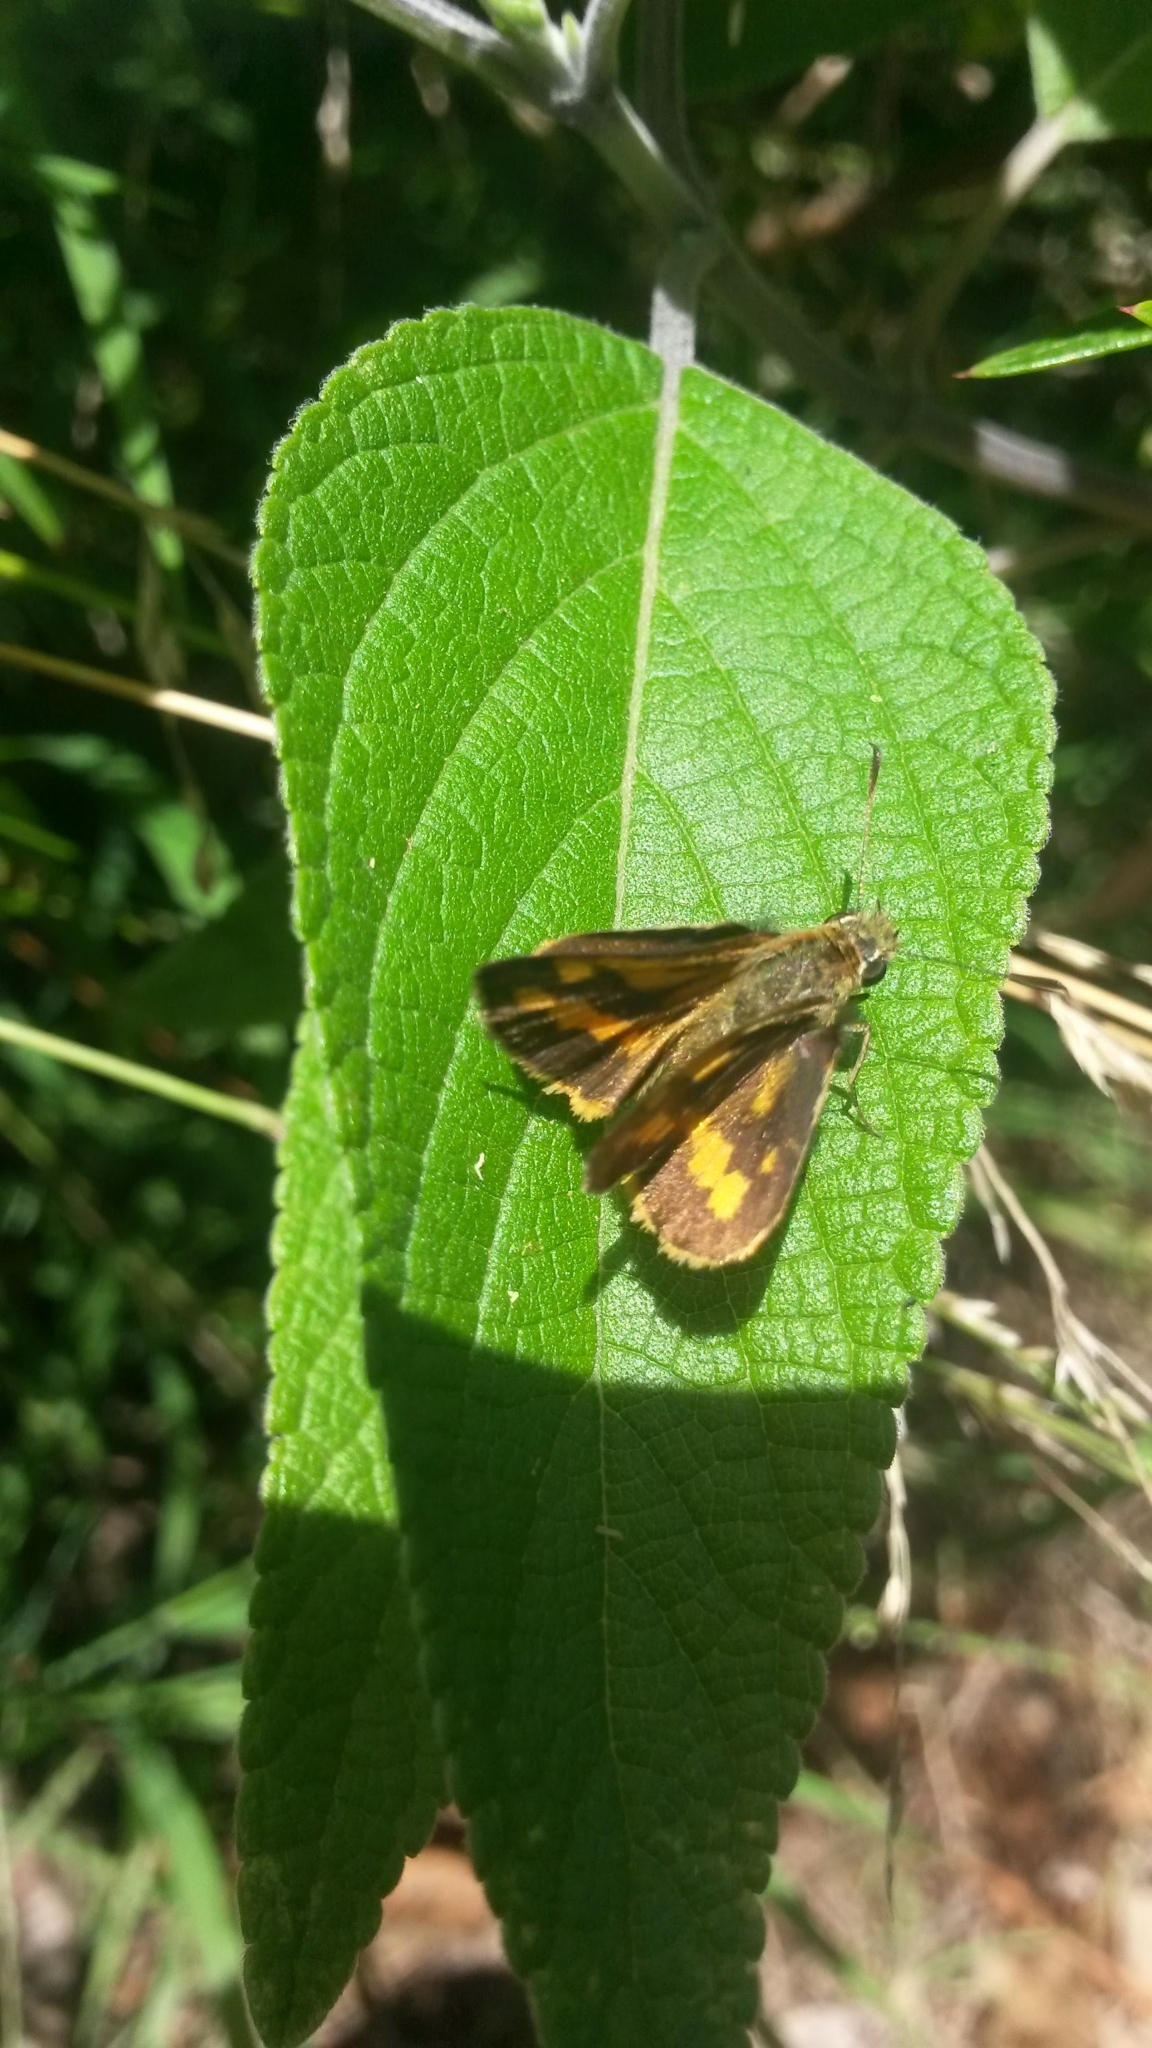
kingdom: Animalia
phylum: Arthropoda
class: Insecta
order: Lepidoptera
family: Hesperiidae
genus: Ocybadistes
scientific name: Ocybadistes walkeri
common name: Yellow-banded dart
